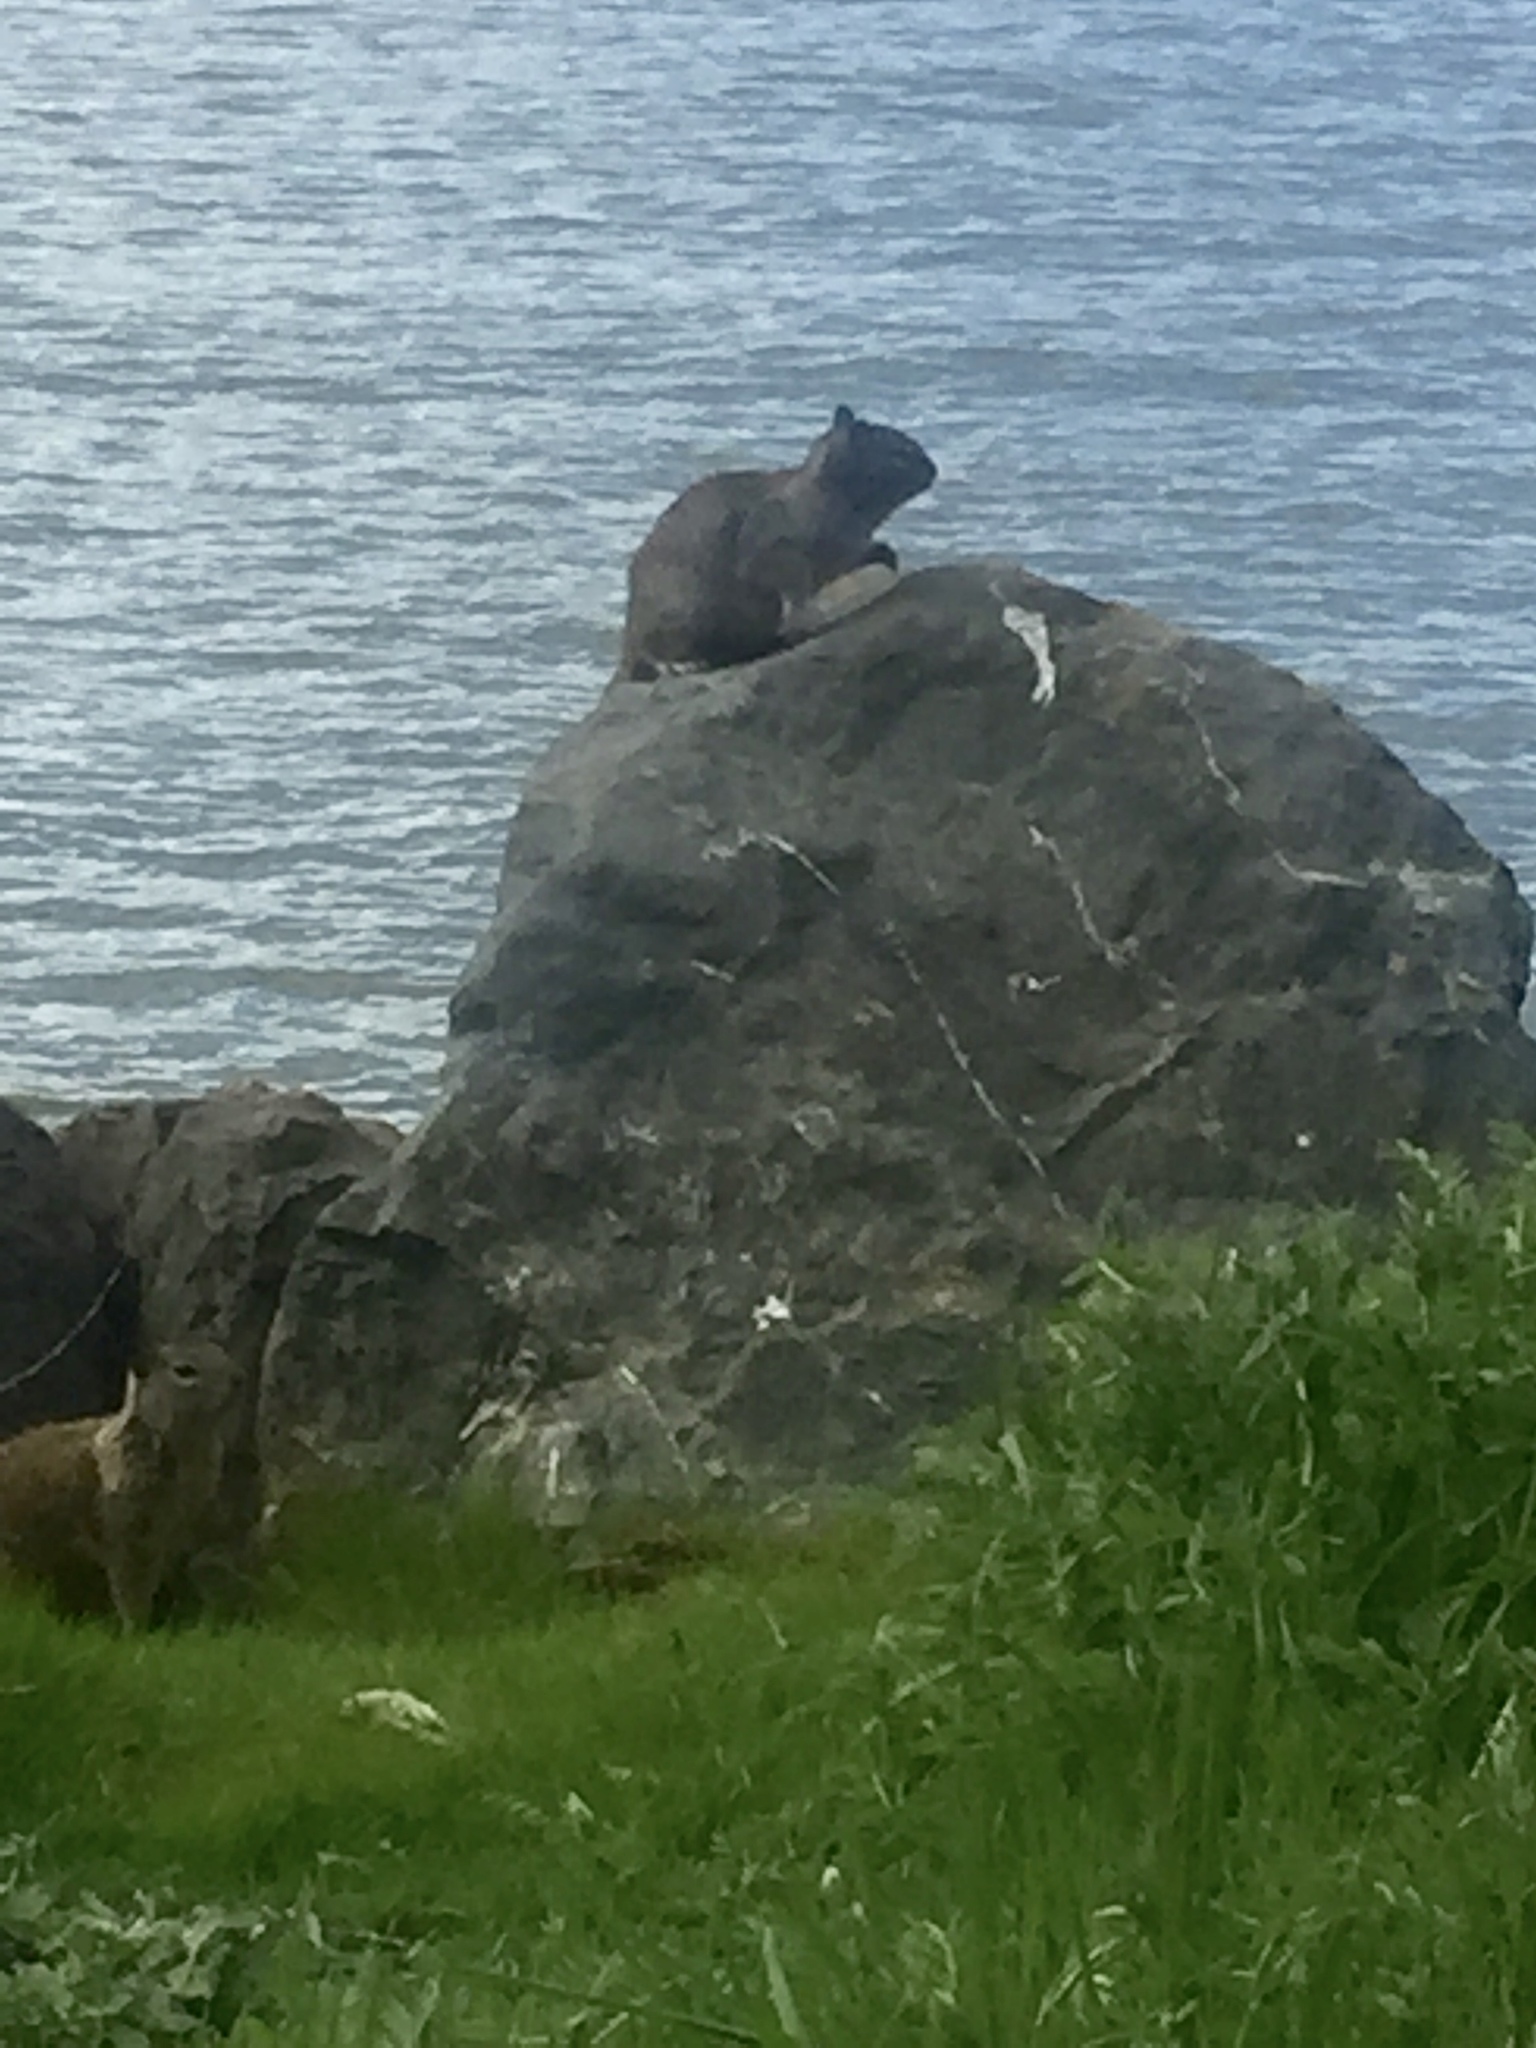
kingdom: Animalia
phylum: Chordata
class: Mammalia
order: Rodentia
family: Sciuridae
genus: Otospermophilus
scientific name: Otospermophilus beecheyi
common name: California ground squirrel
